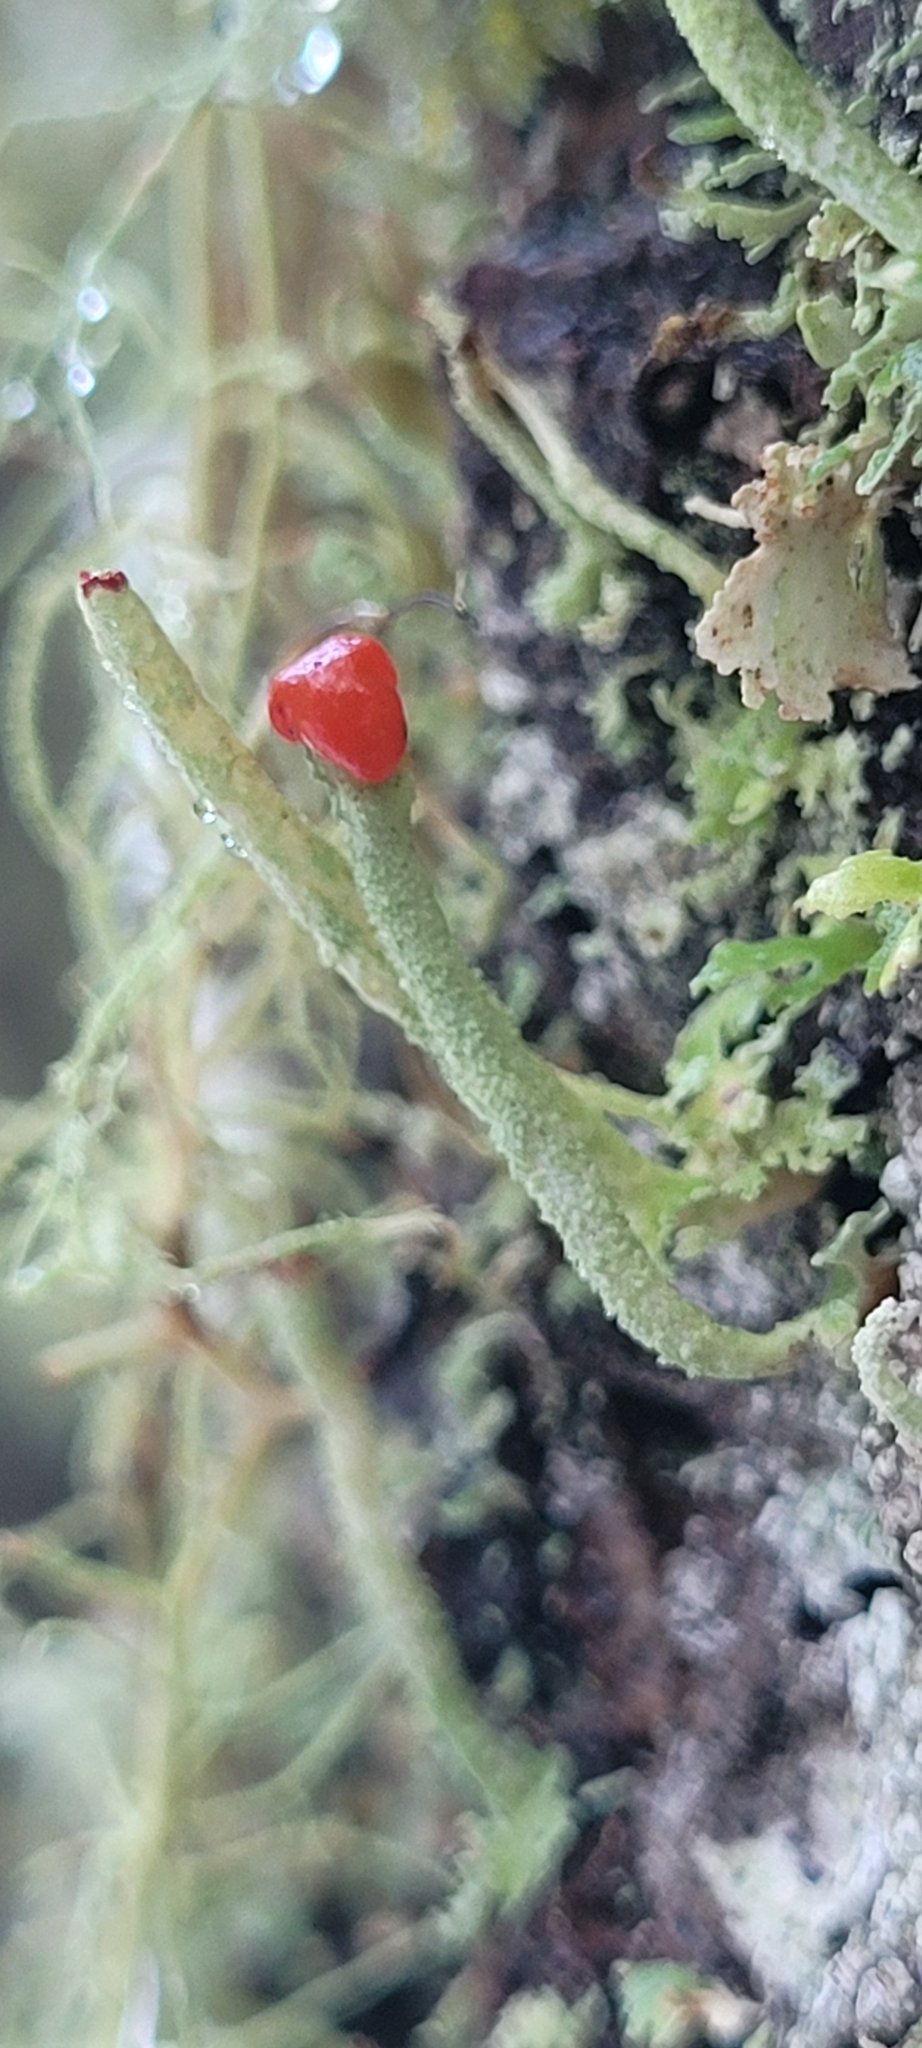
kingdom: Fungi
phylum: Ascomycota
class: Lecanoromycetes
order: Lecanorales
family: Cladoniaceae
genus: Cladonia
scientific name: Cladonia macilenta
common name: Lipstick powderhorn
